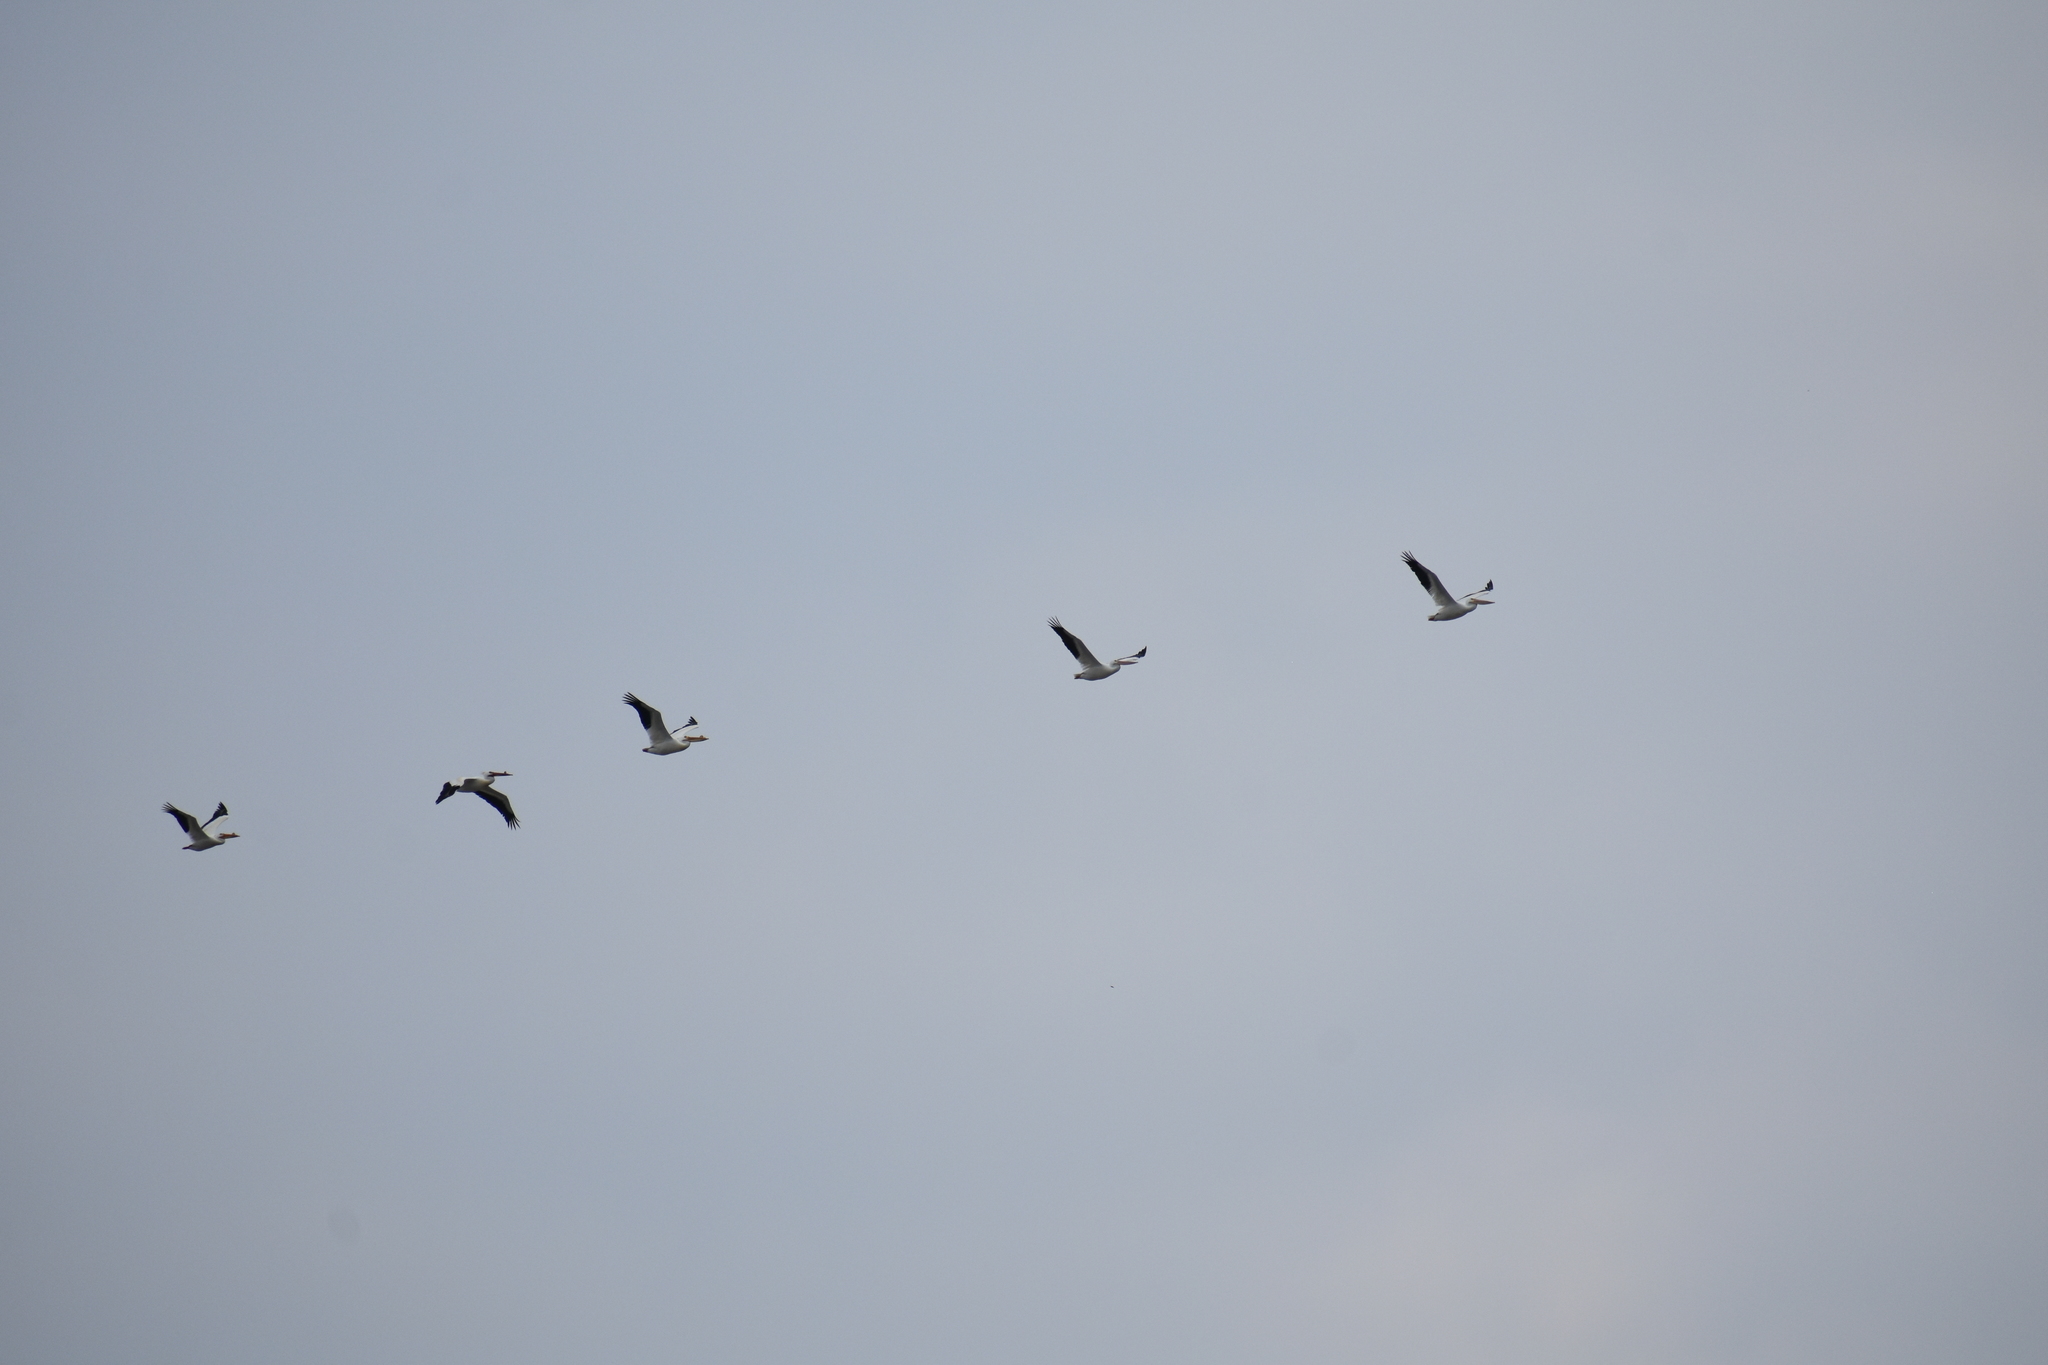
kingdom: Animalia
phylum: Chordata
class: Aves
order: Pelecaniformes
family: Pelecanidae
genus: Pelecanus
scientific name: Pelecanus erythrorhynchos
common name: American white pelican
